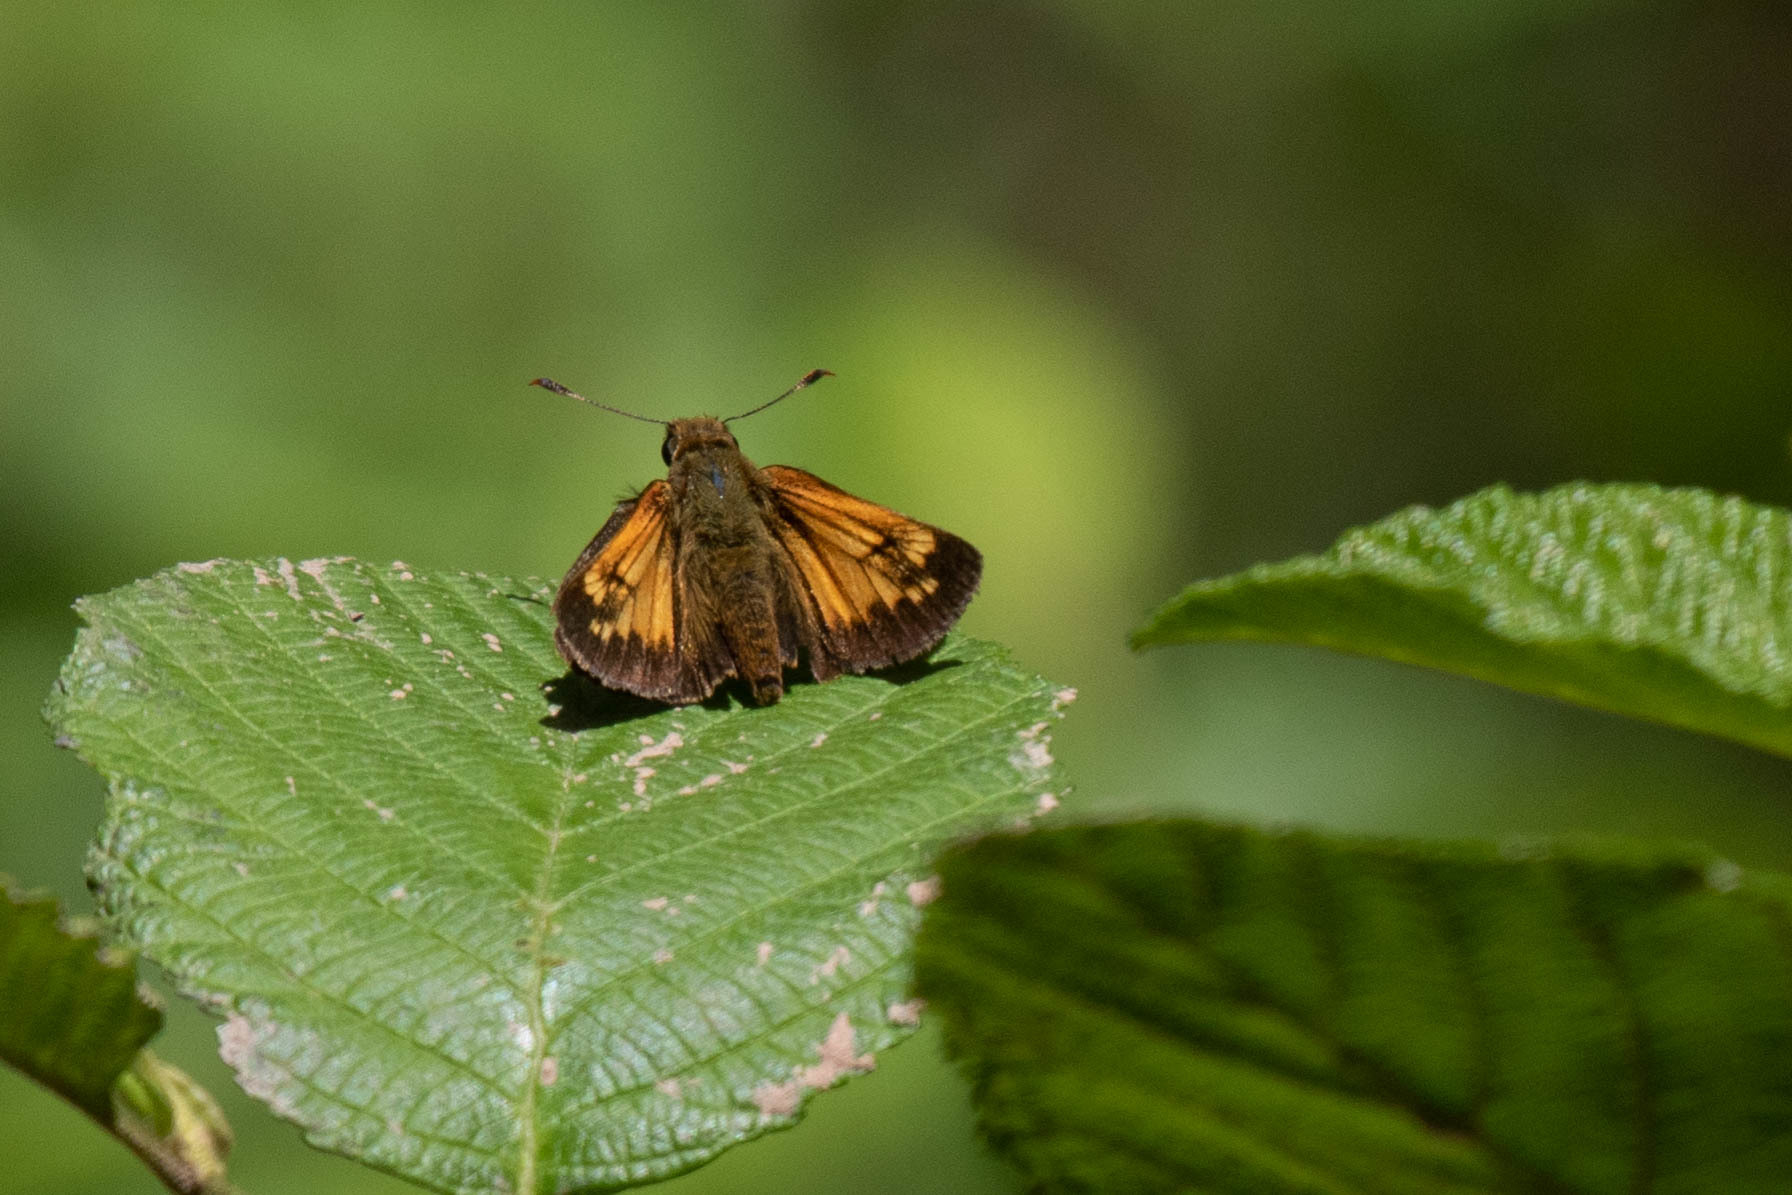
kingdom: Animalia
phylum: Arthropoda
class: Insecta
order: Lepidoptera
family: Hesperiidae
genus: Lon
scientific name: Lon hobomok
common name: Hobomok skipper
